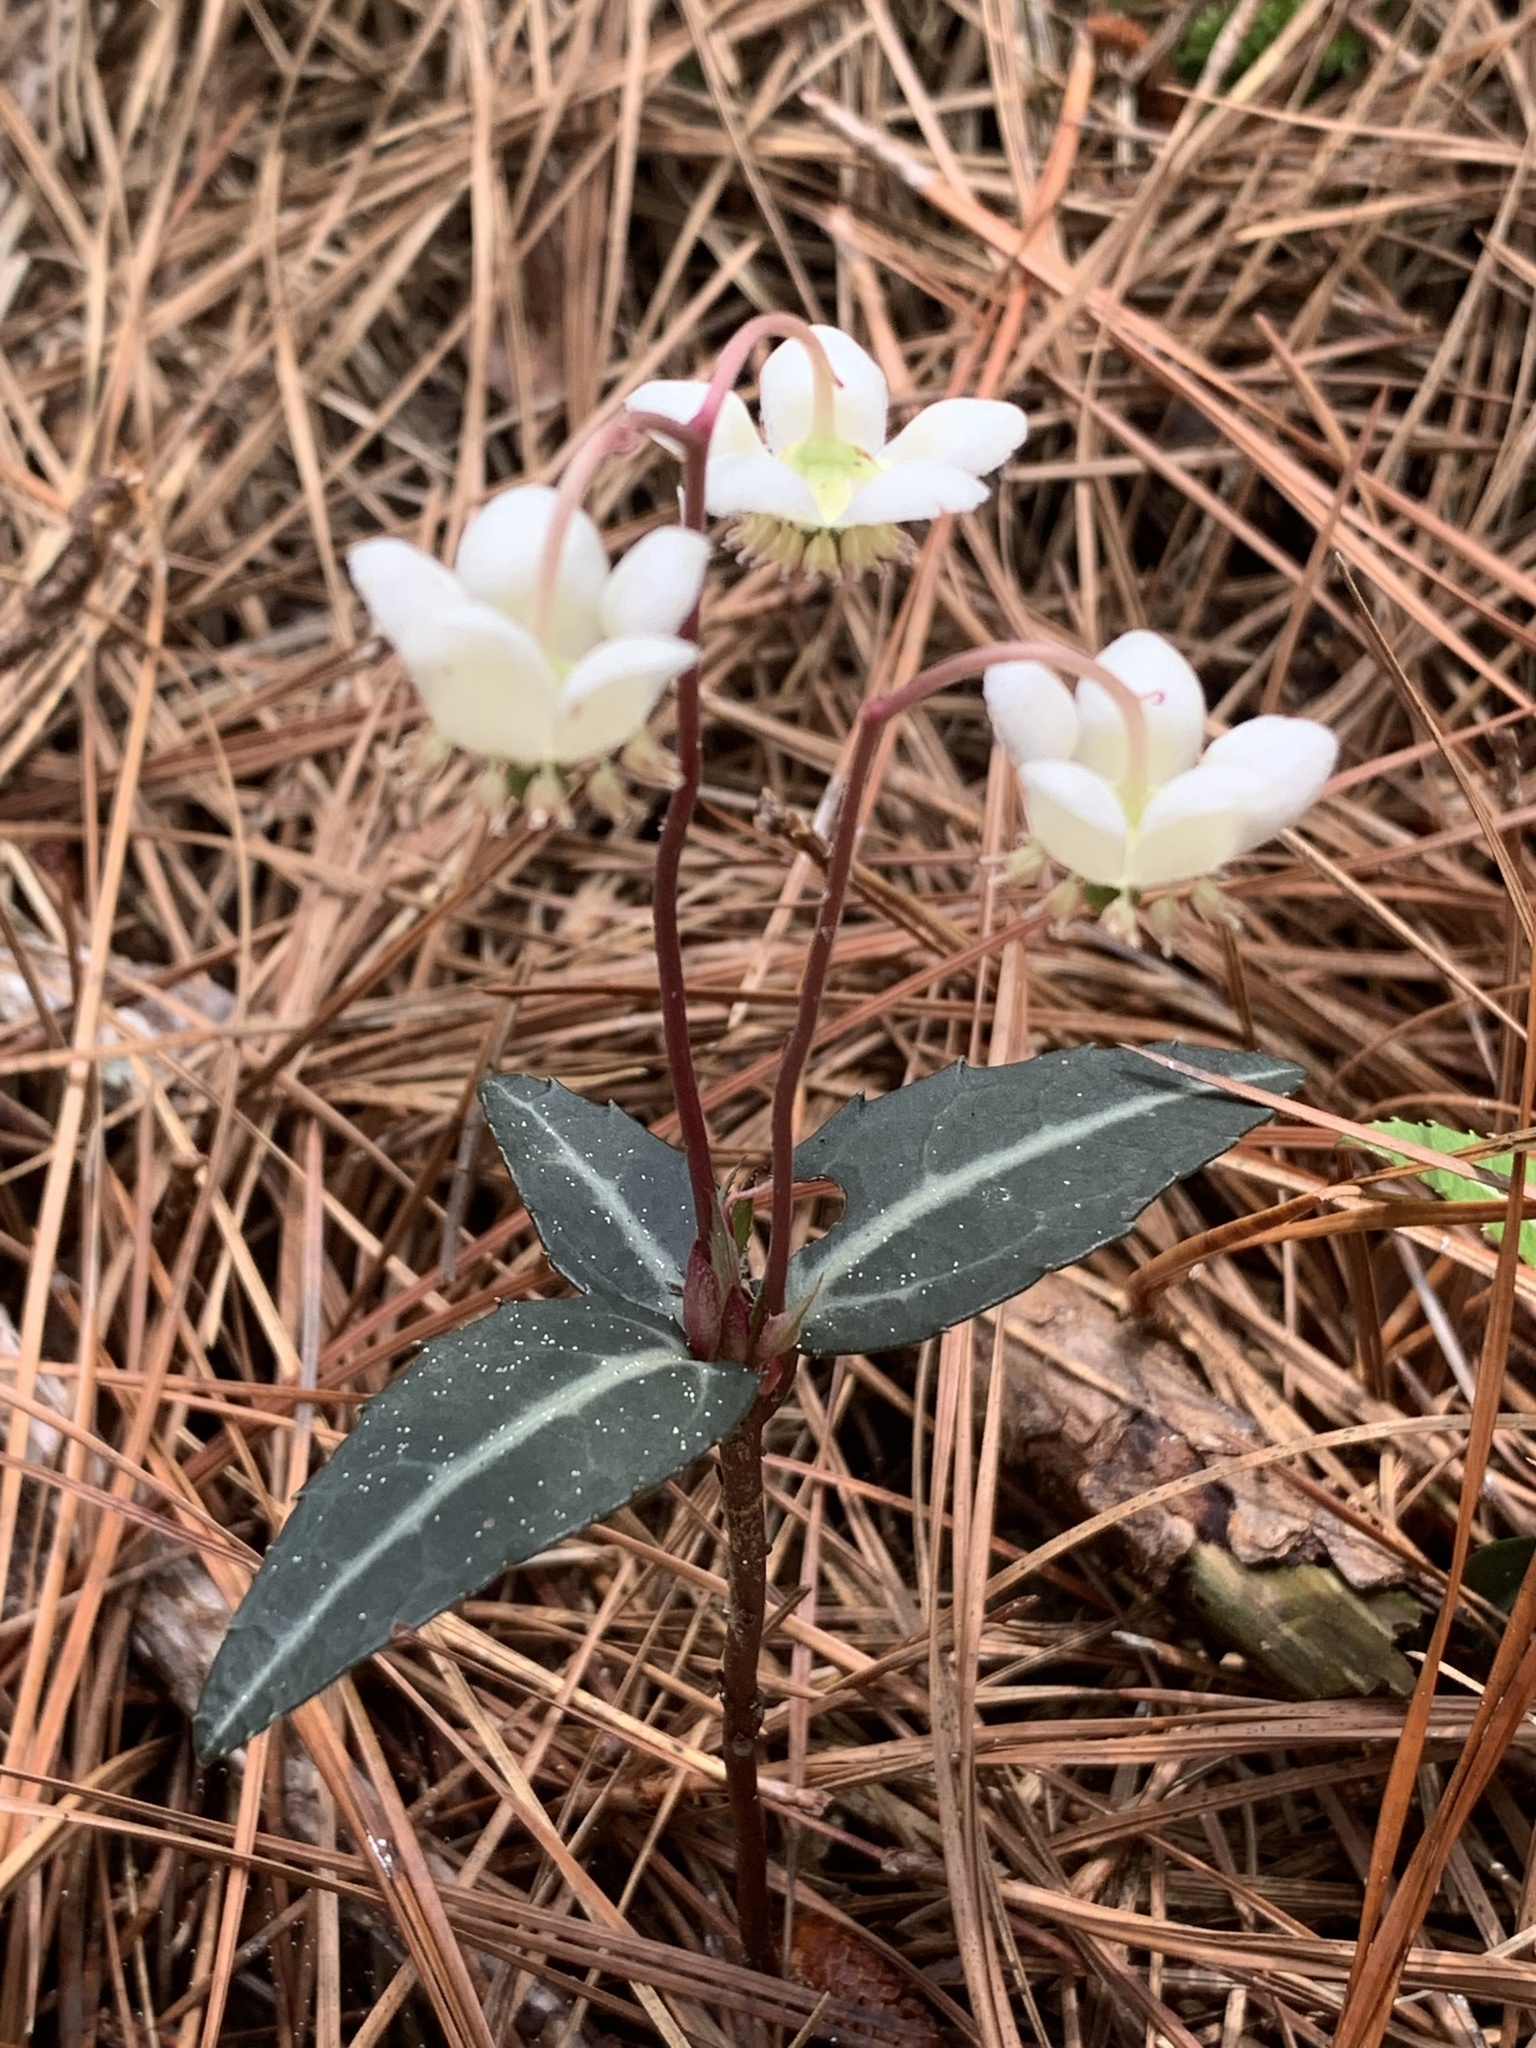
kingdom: Plantae
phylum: Tracheophyta
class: Magnoliopsida
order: Ericales
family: Ericaceae
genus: Chimaphila
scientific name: Chimaphila maculata
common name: Spotted pipsissewa
